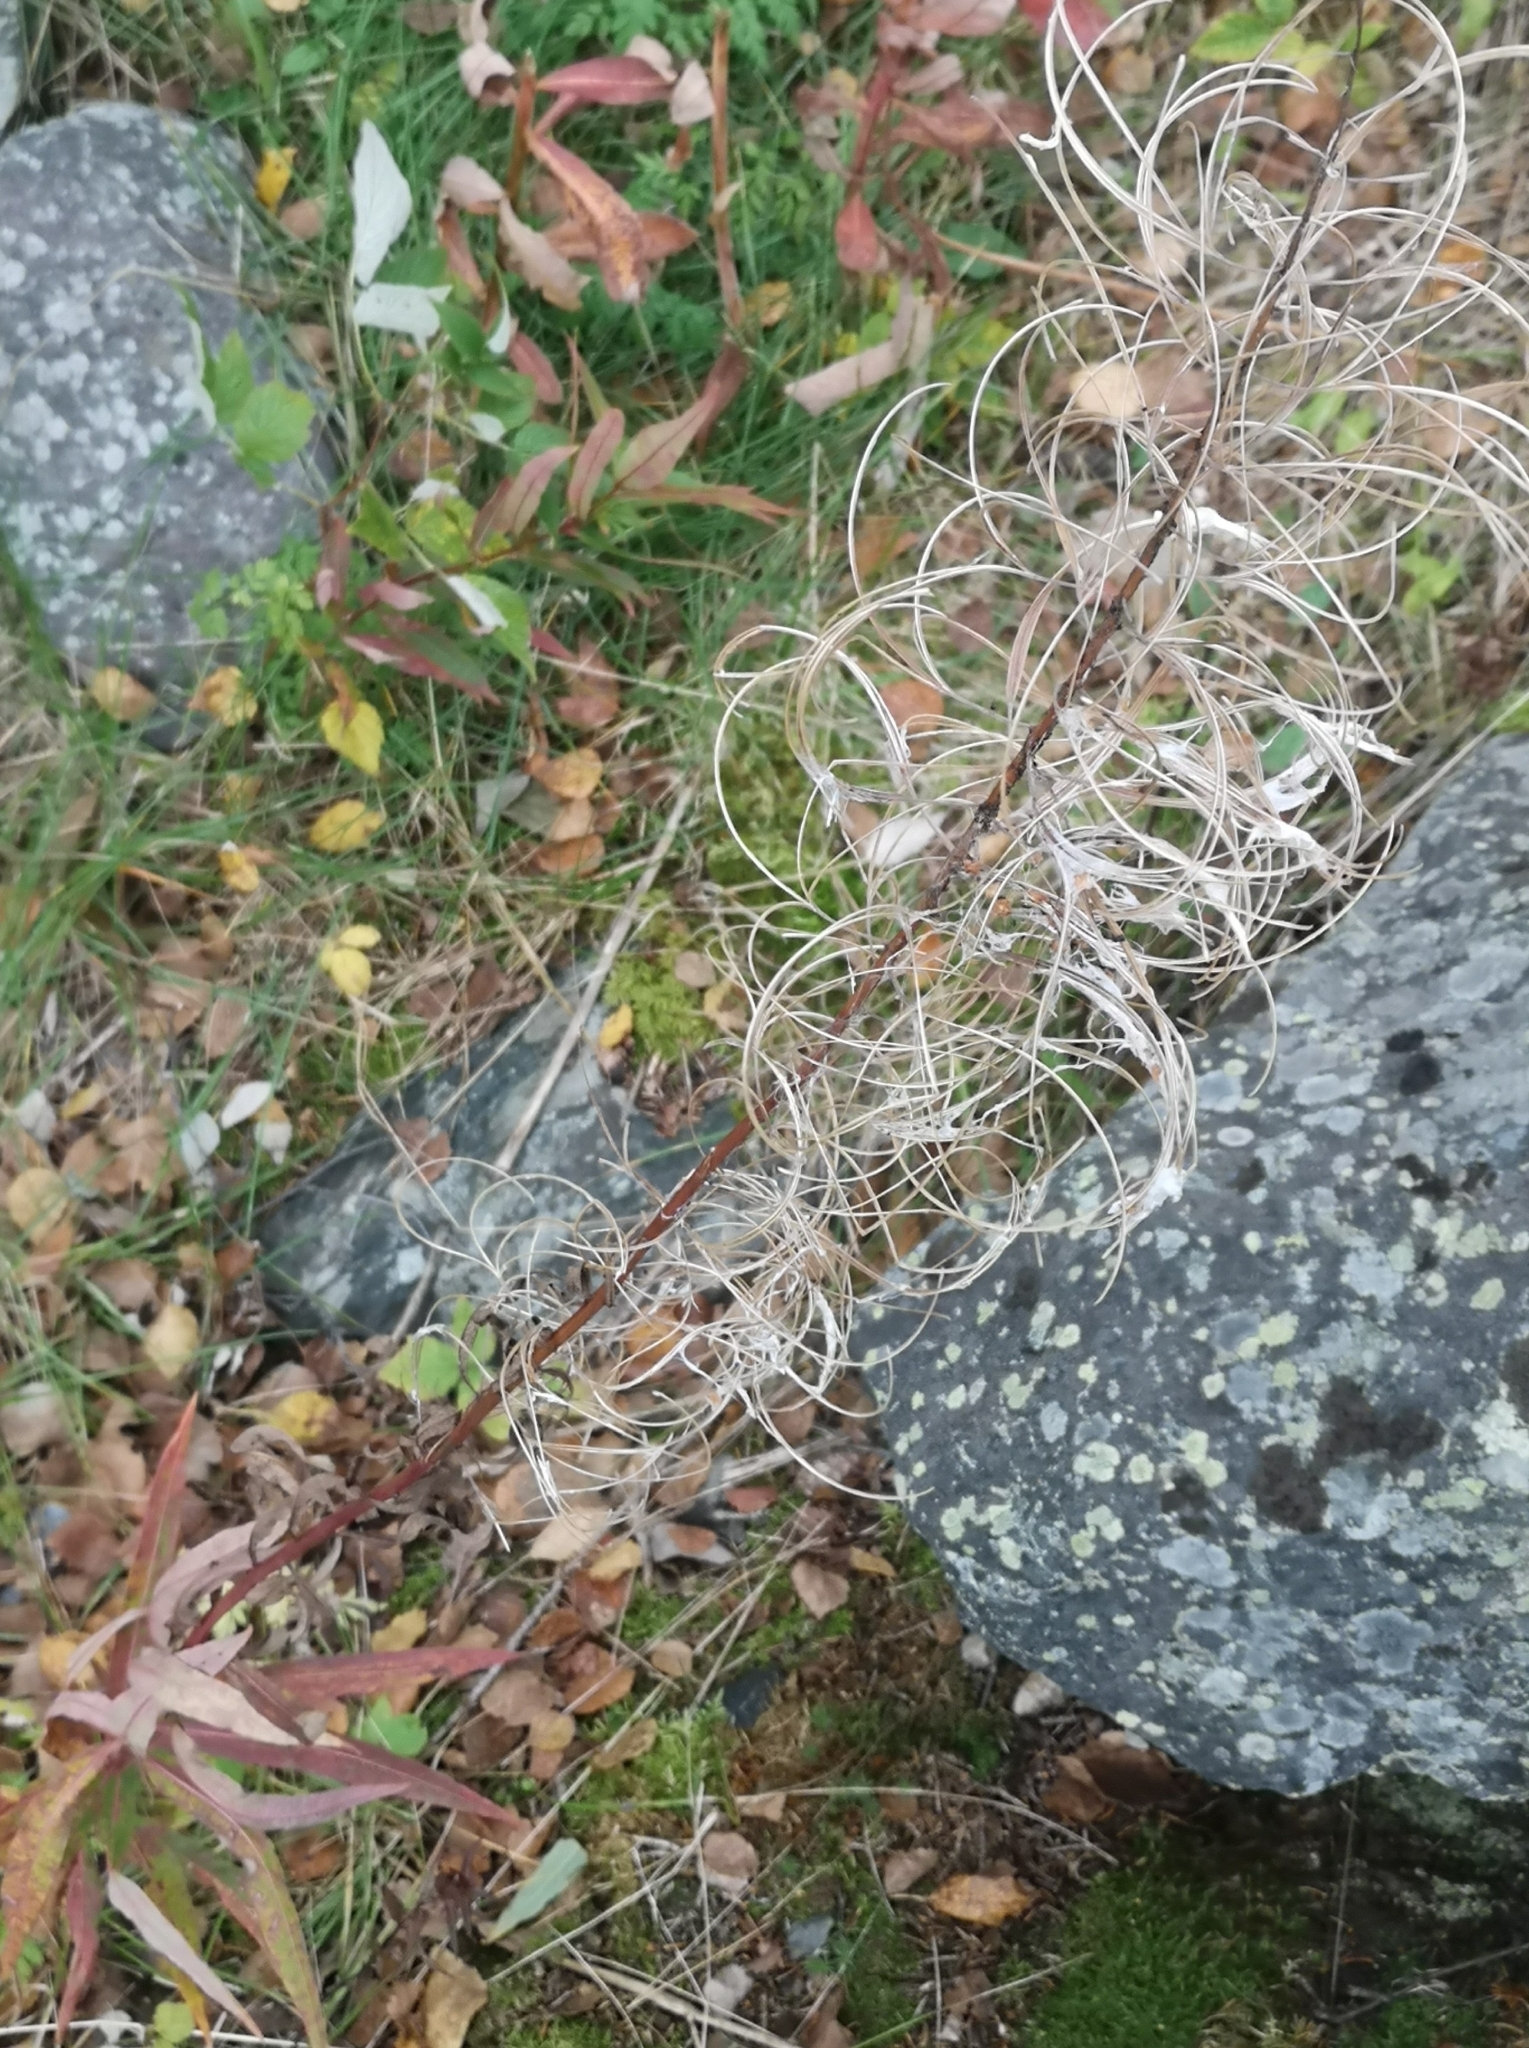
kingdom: Plantae
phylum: Tracheophyta
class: Magnoliopsida
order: Myrtales
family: Onagraceae
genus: Chamaenerion
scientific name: Chamaenerion angustifolium
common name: Fireweed
